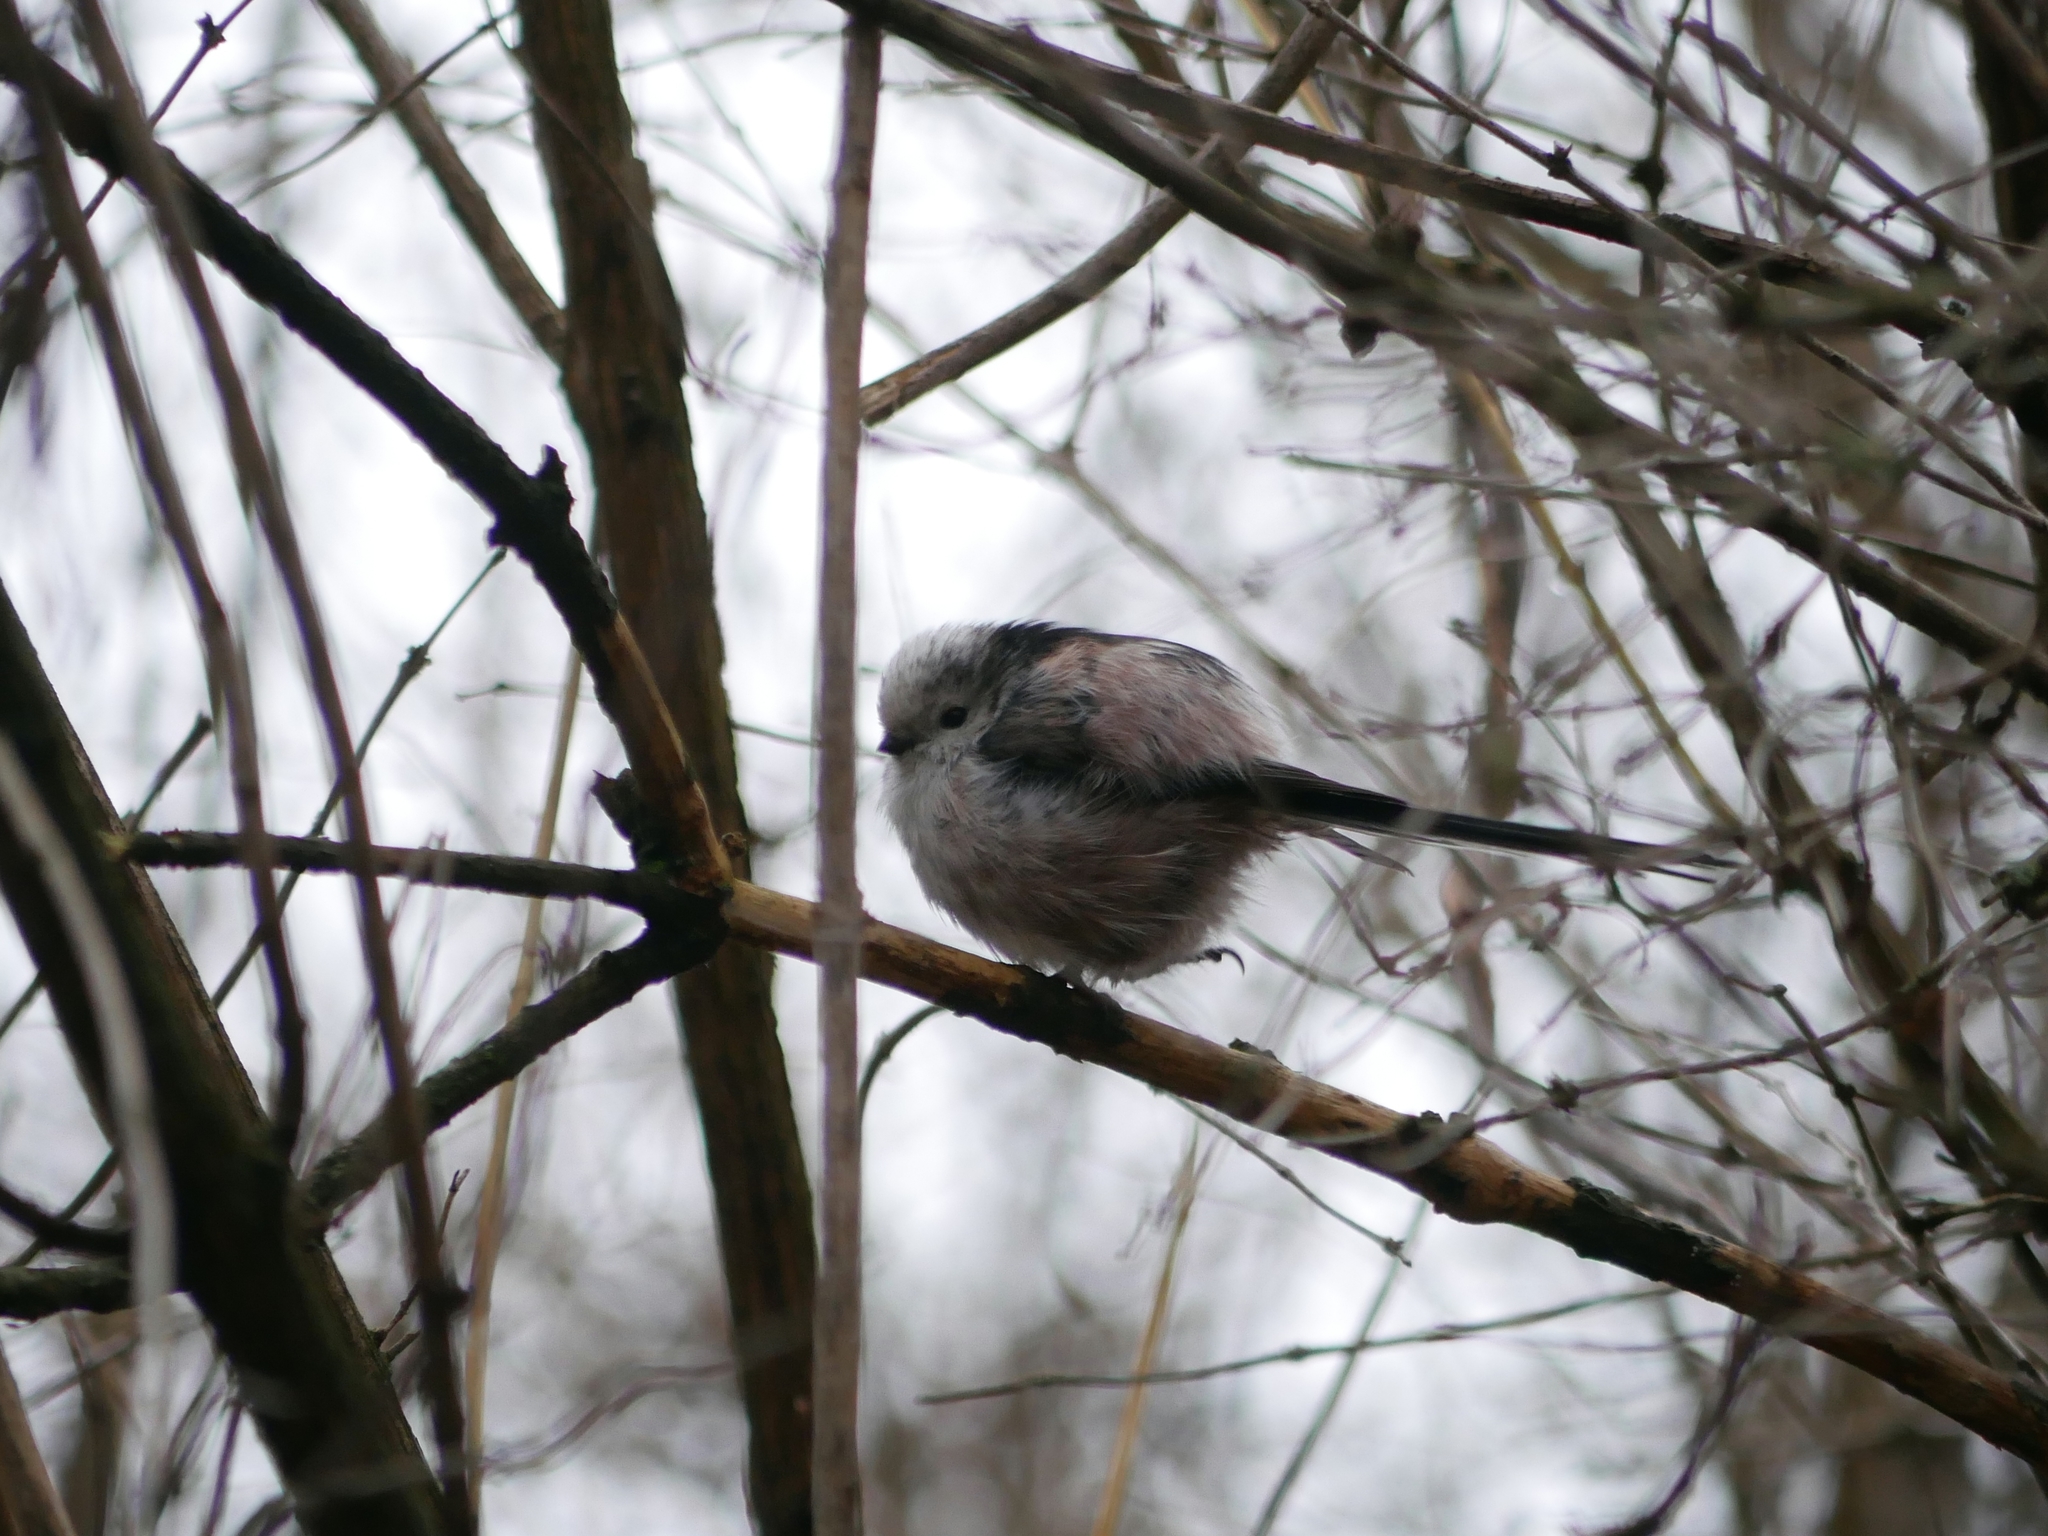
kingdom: Animalia
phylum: Chordata
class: Aves
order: Passeriformes
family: Aegithalidae
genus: Aegithalos
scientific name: Aegithalos caudatus
